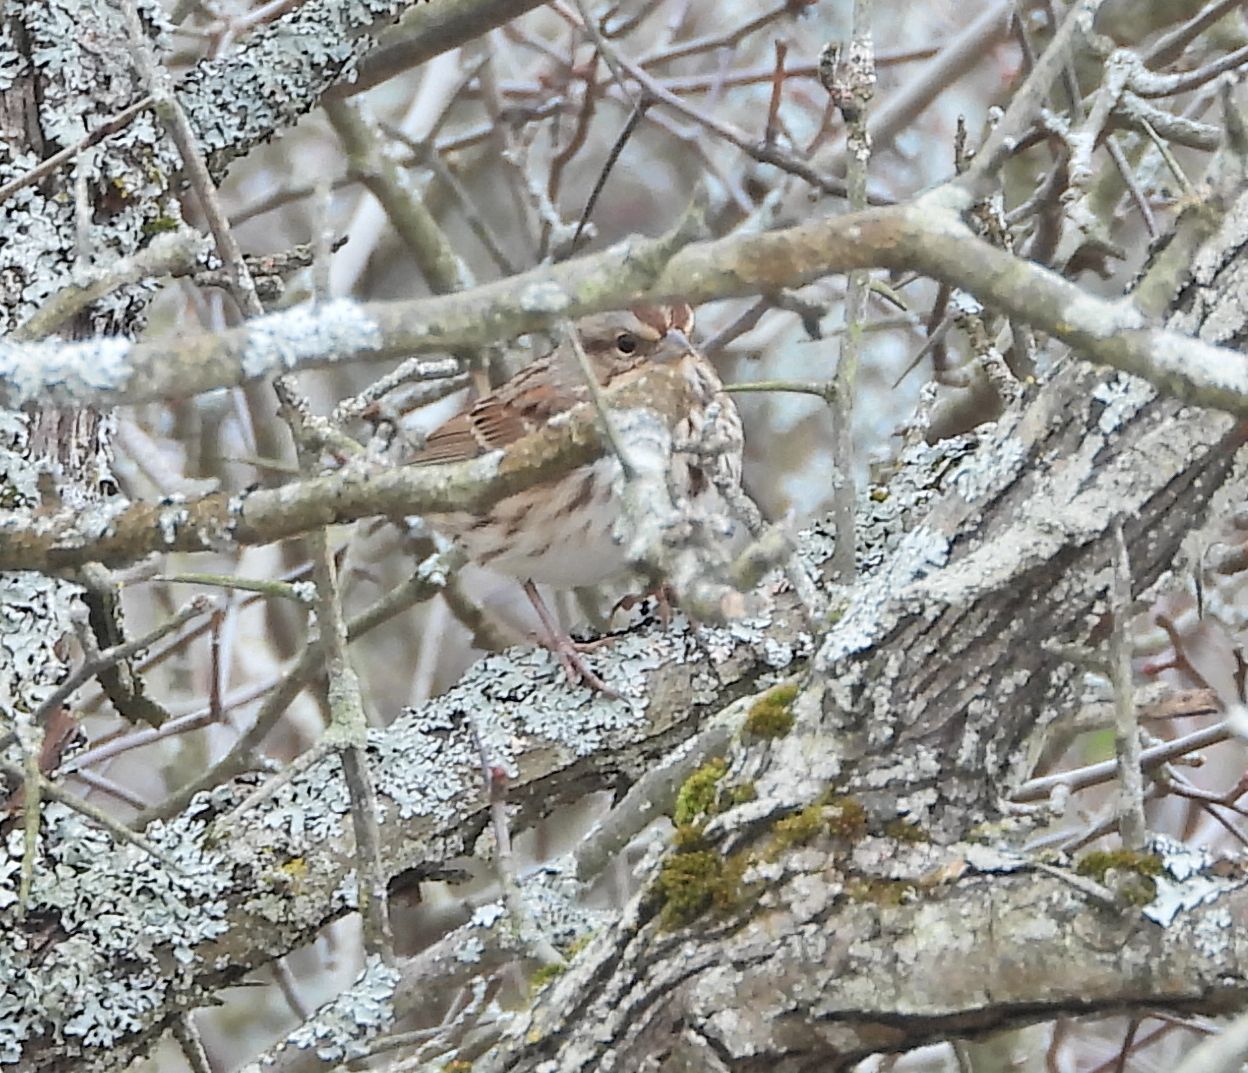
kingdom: Animalia
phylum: Chordata
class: Aves
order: Passeriformes
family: Passerellidae
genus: Melospiza
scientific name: Melospiza melodia
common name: Song sparrow
